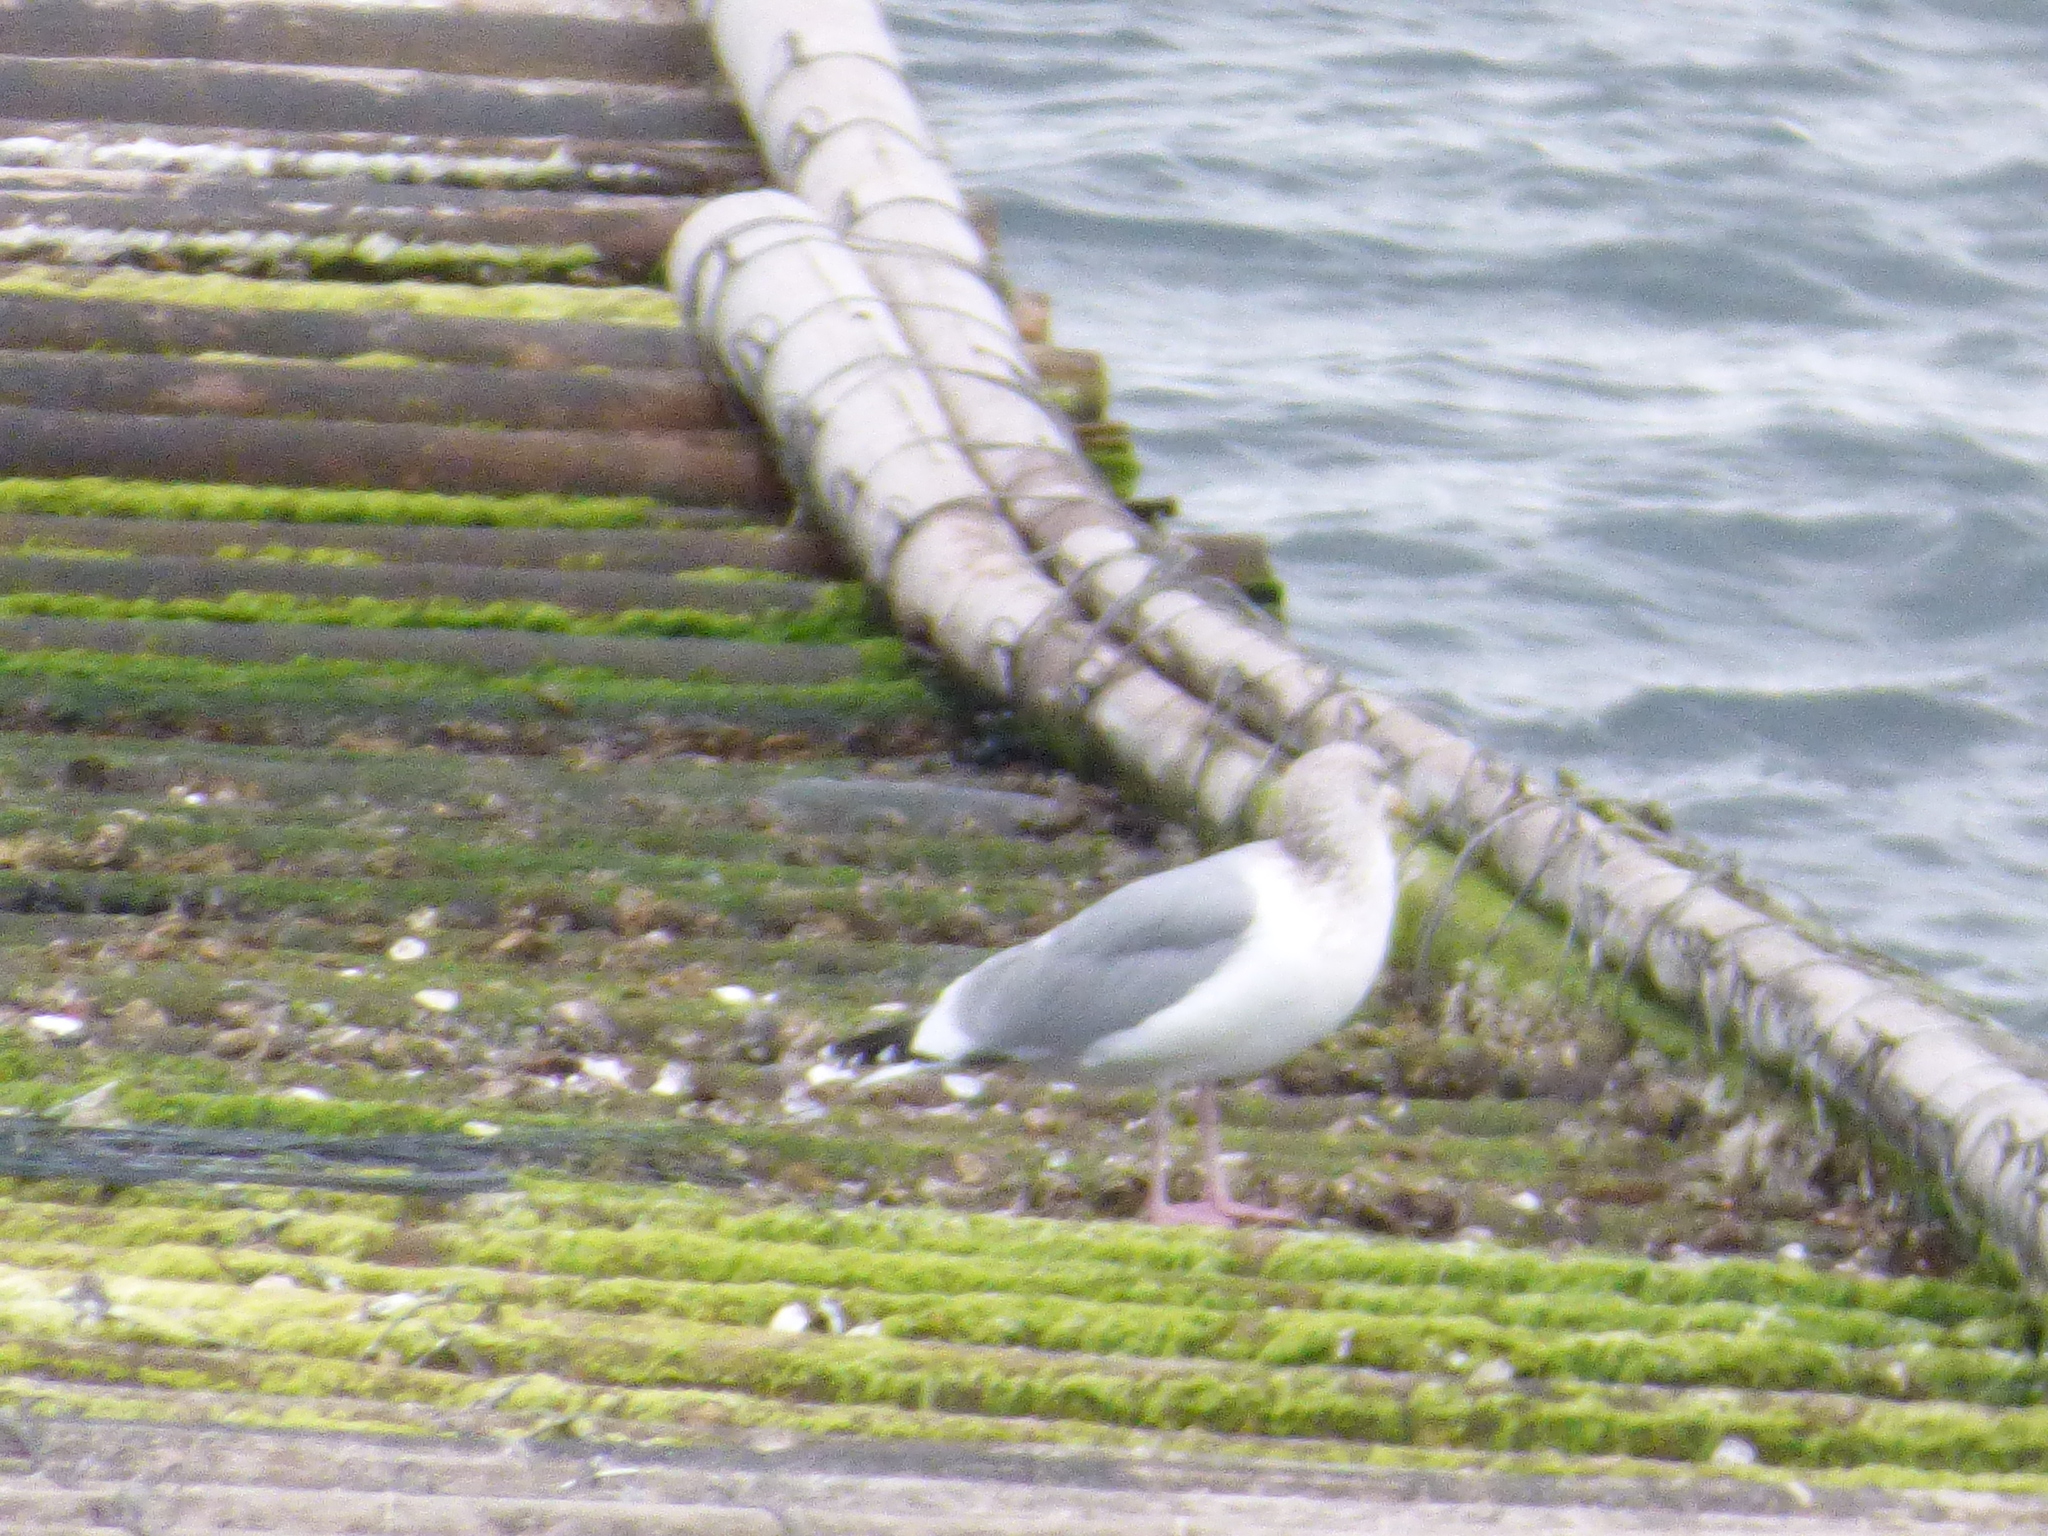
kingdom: Animalia
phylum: Chordata
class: Aves
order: Charadriiformes
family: Laridae
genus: Larus
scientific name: Larus vegae
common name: Vega gull
